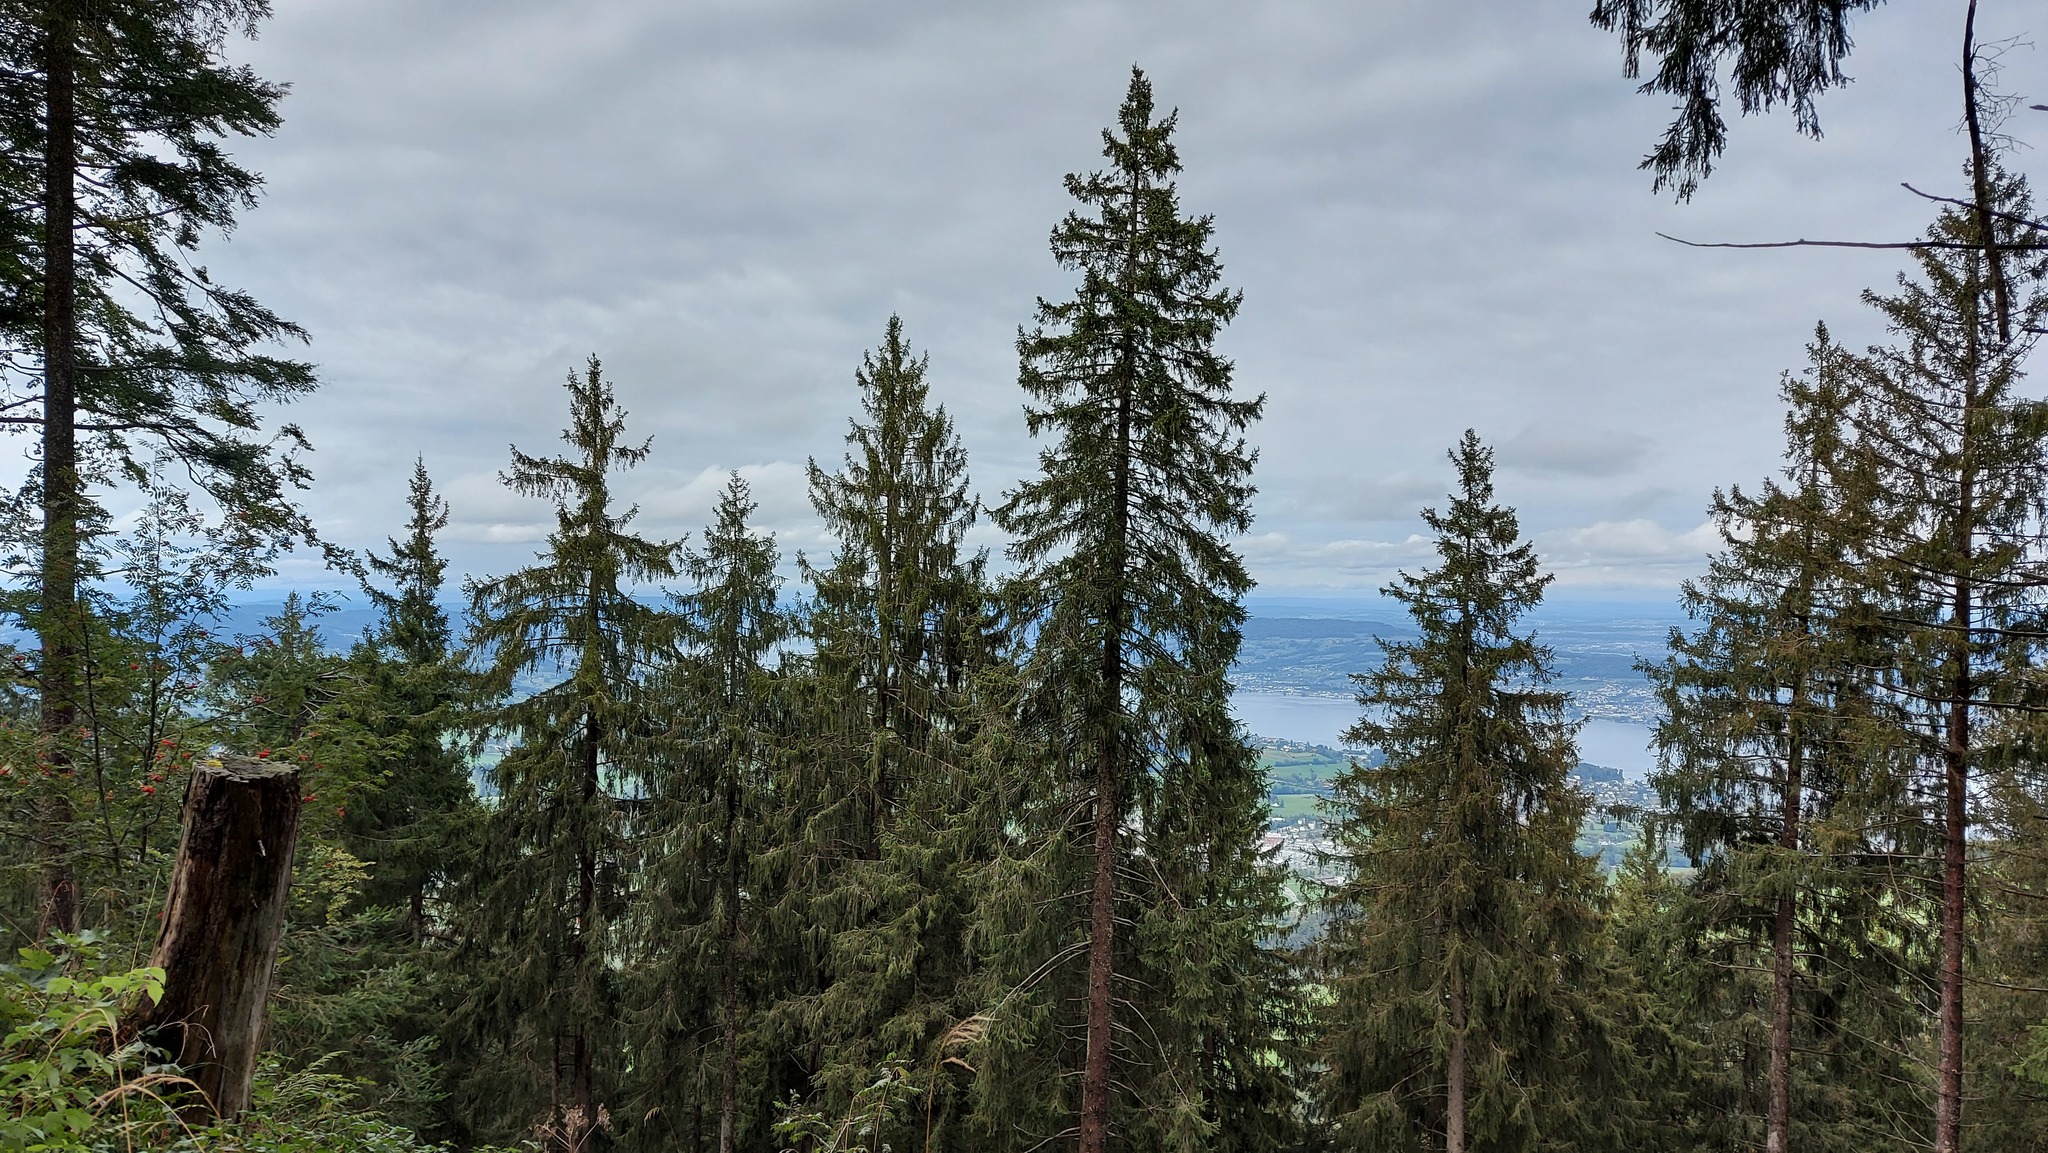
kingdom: Plantae
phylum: Tracheophyta
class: Pinopsida
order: Pinales
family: Pinaceae
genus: Picea
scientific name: Picea abies
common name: Norway spruce
